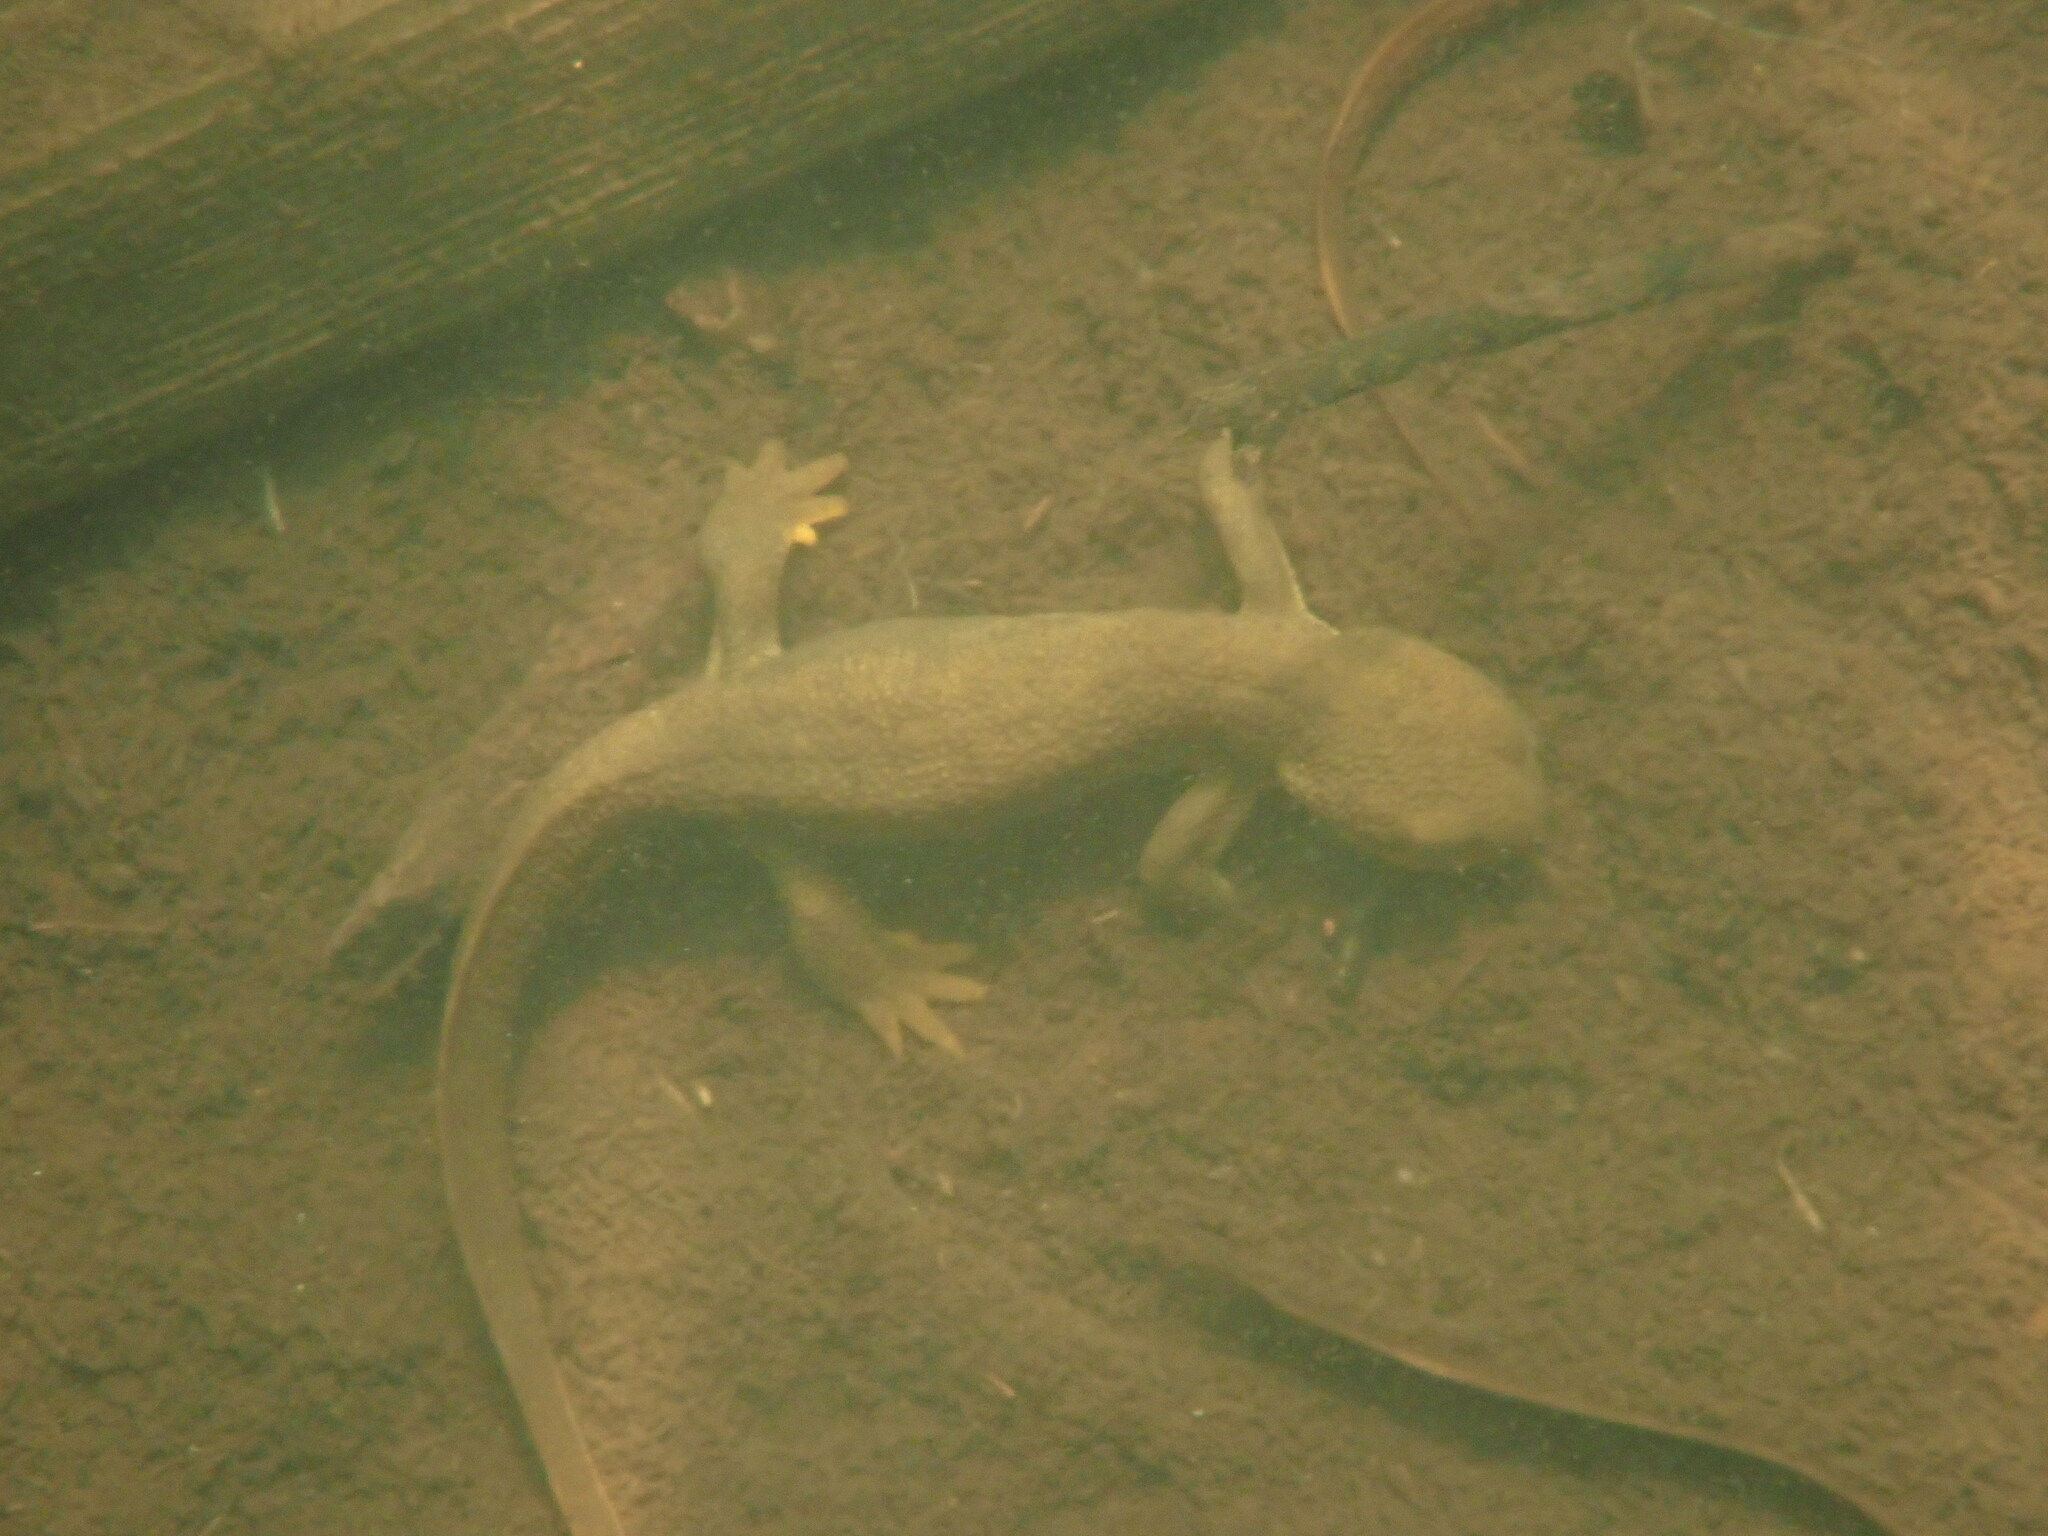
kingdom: Animalia
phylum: Chordata
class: Amphibia
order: Caudata
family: Salamandridae
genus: Taricha
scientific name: Taricha granulosa
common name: Roughskin newt
